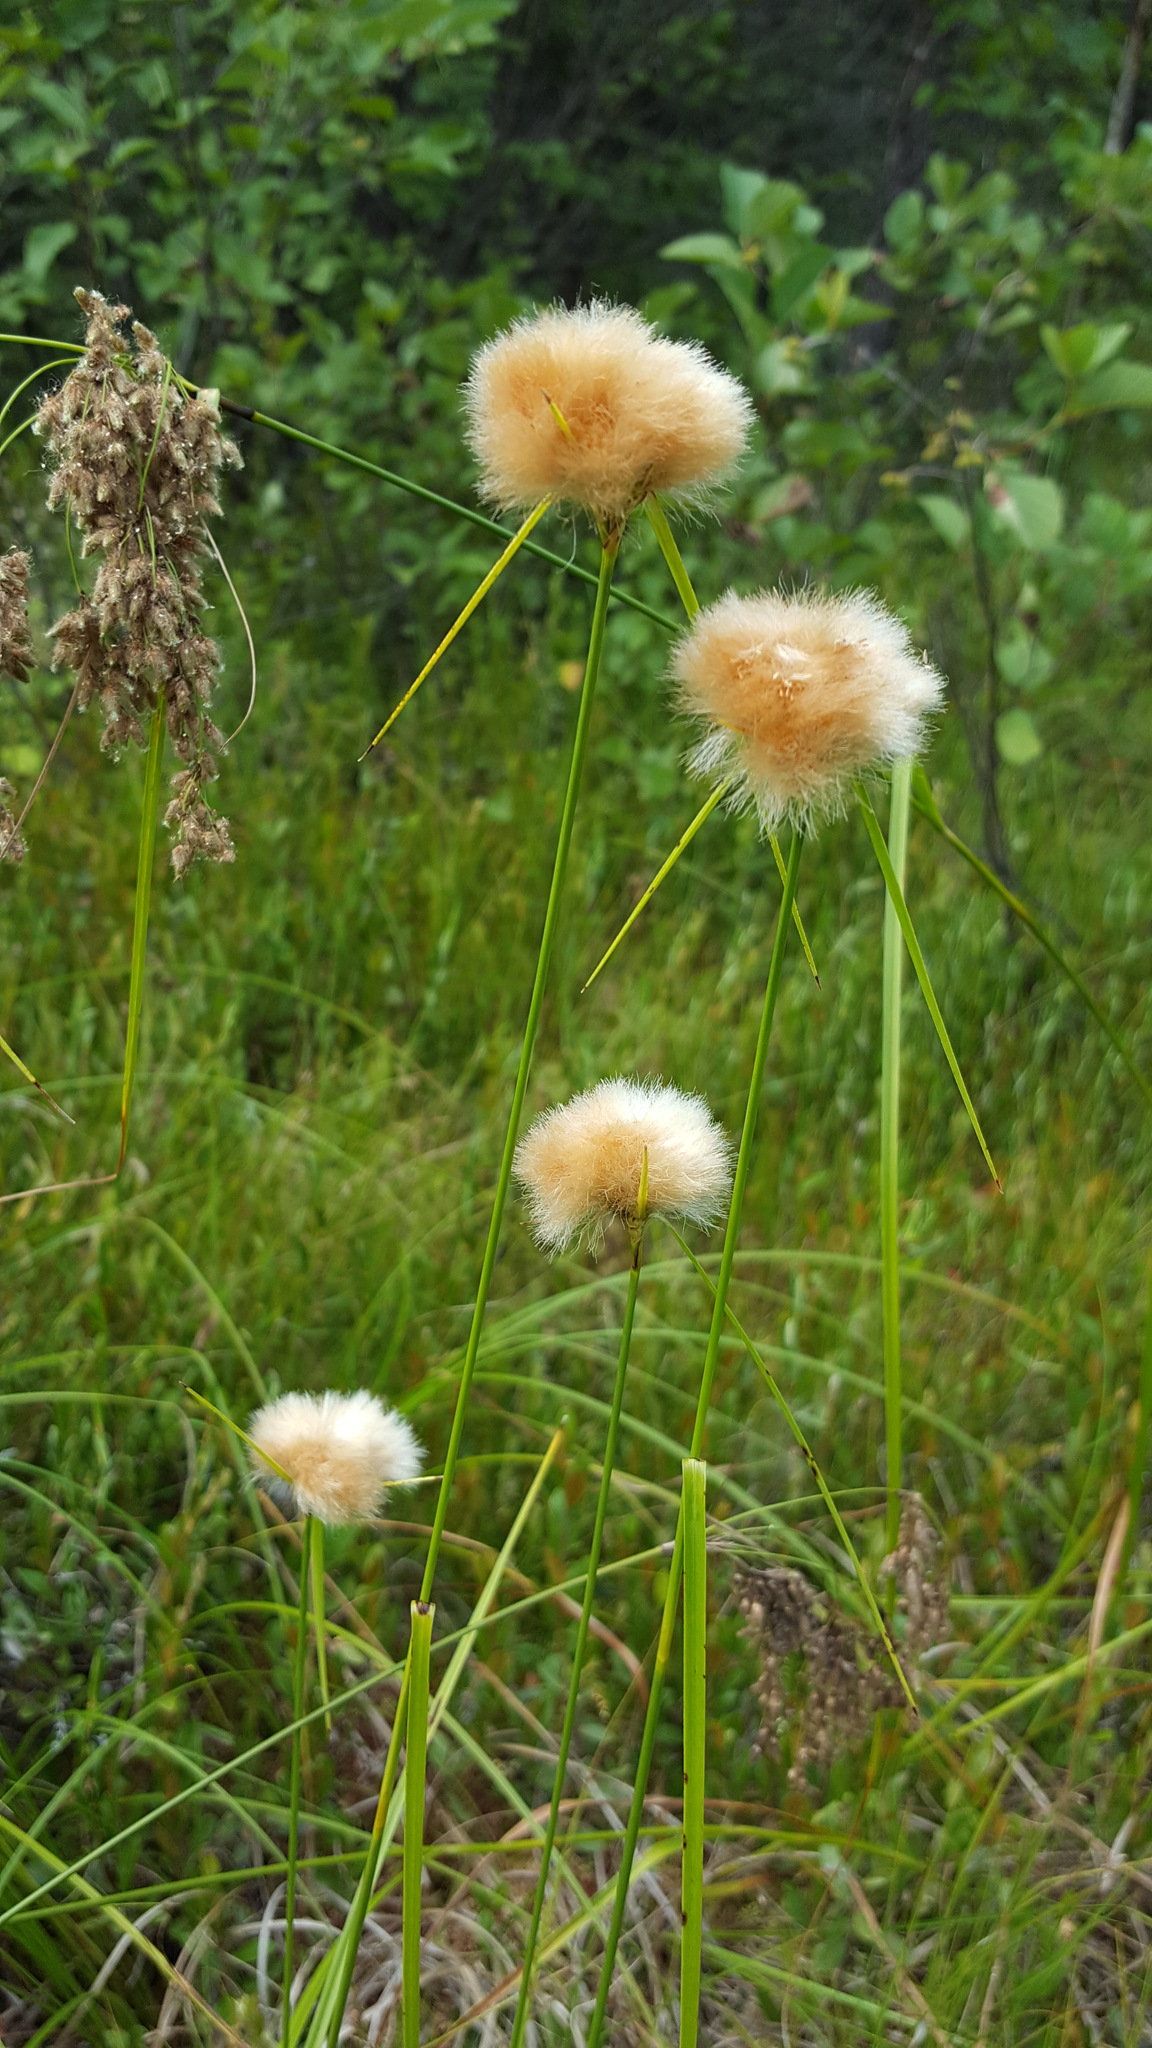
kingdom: Plantae
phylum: Tracheophyta
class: Liliopsida
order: Poales
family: Cyperaceae
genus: Eriophorum
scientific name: Eriophorum virginicum
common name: Tawny cottongrass
